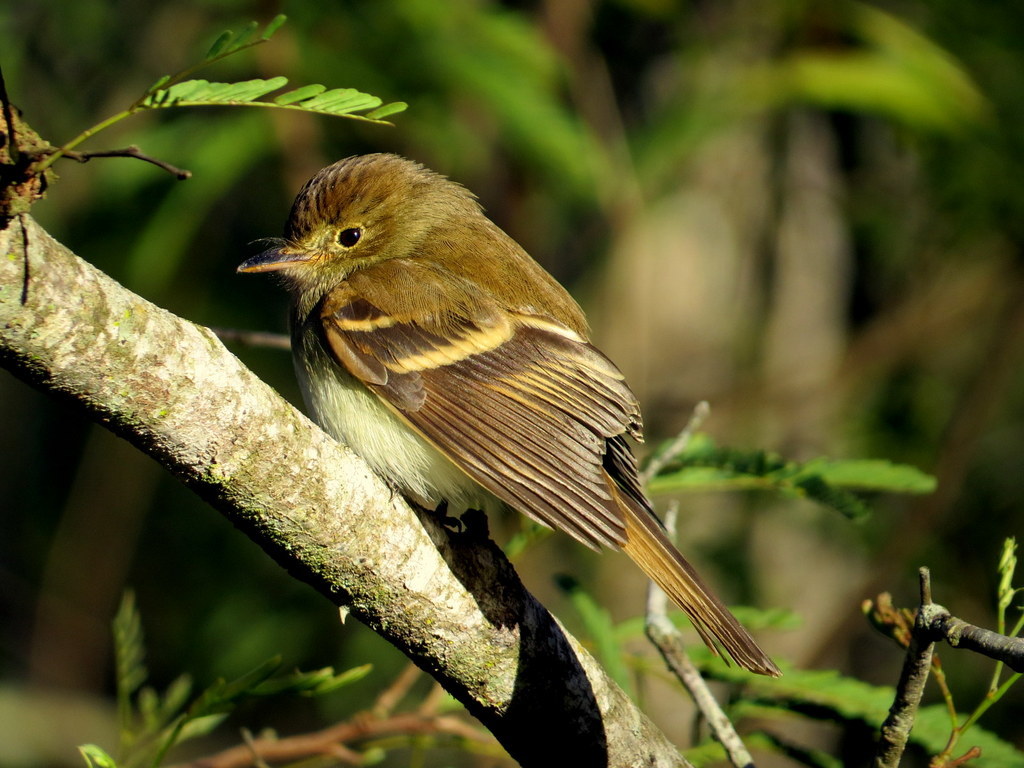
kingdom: Animalia
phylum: Chordata
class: Aves
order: Passeriformes
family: Tyrannidae
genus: Lathrotriccus
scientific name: Lathrotriccus euleri
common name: Euler's flycatcher
